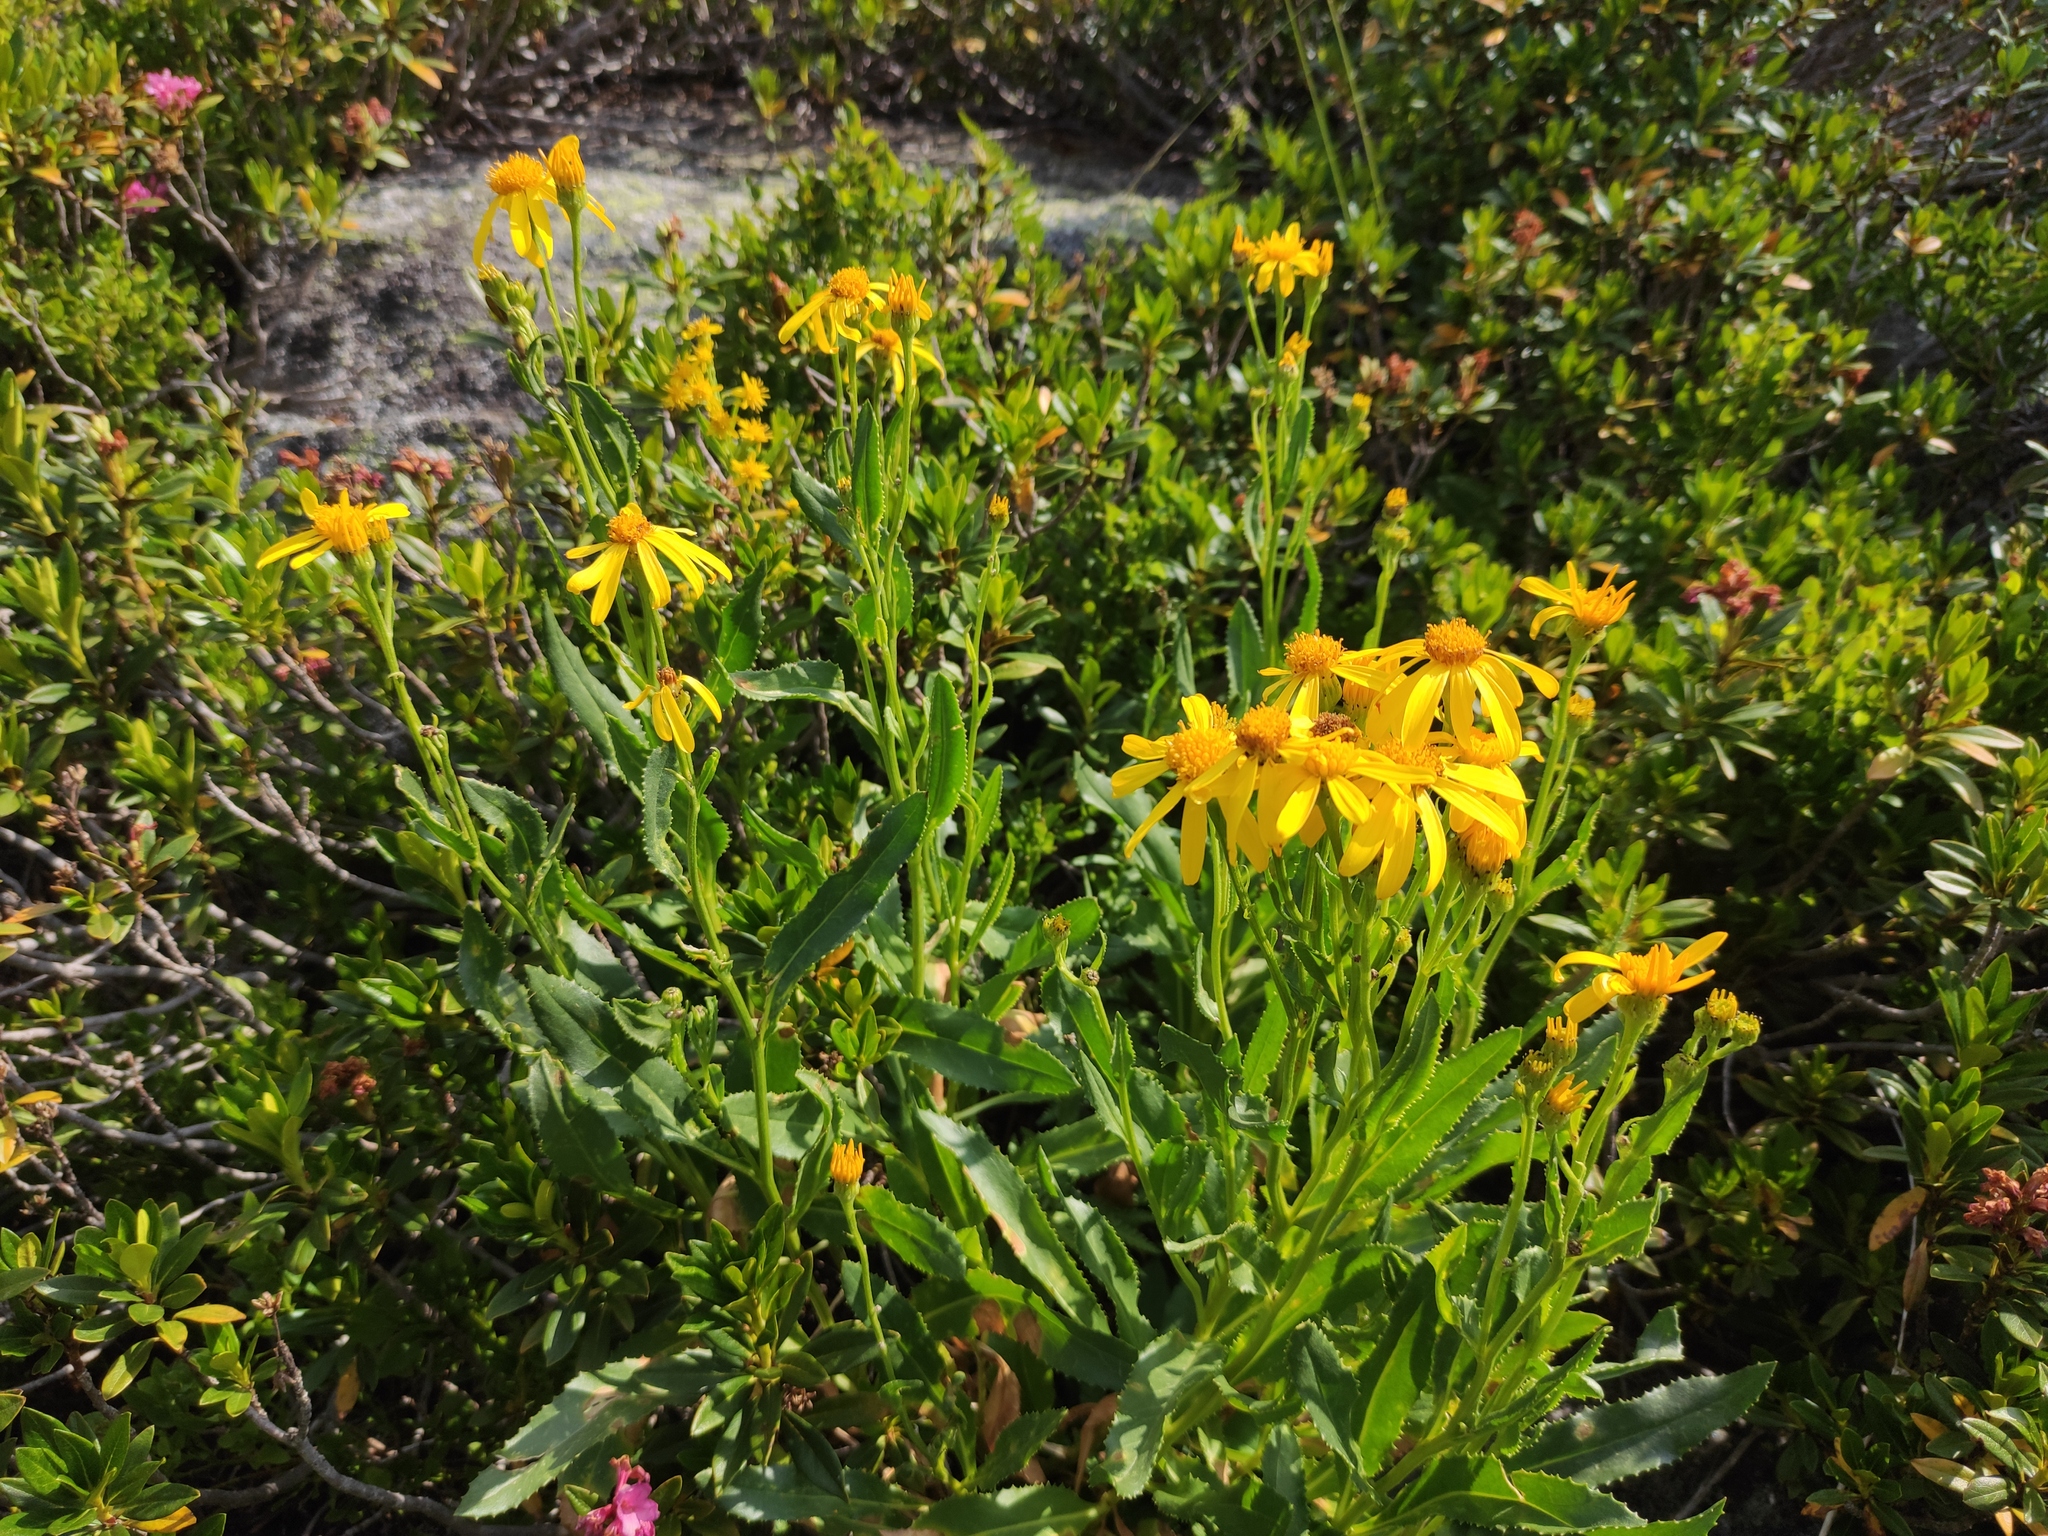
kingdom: Plantae
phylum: Tracheophyta
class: Magnoliopsida
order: Asterales
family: Asteraceae
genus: Senecio
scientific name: Senecio pyrenaicus
